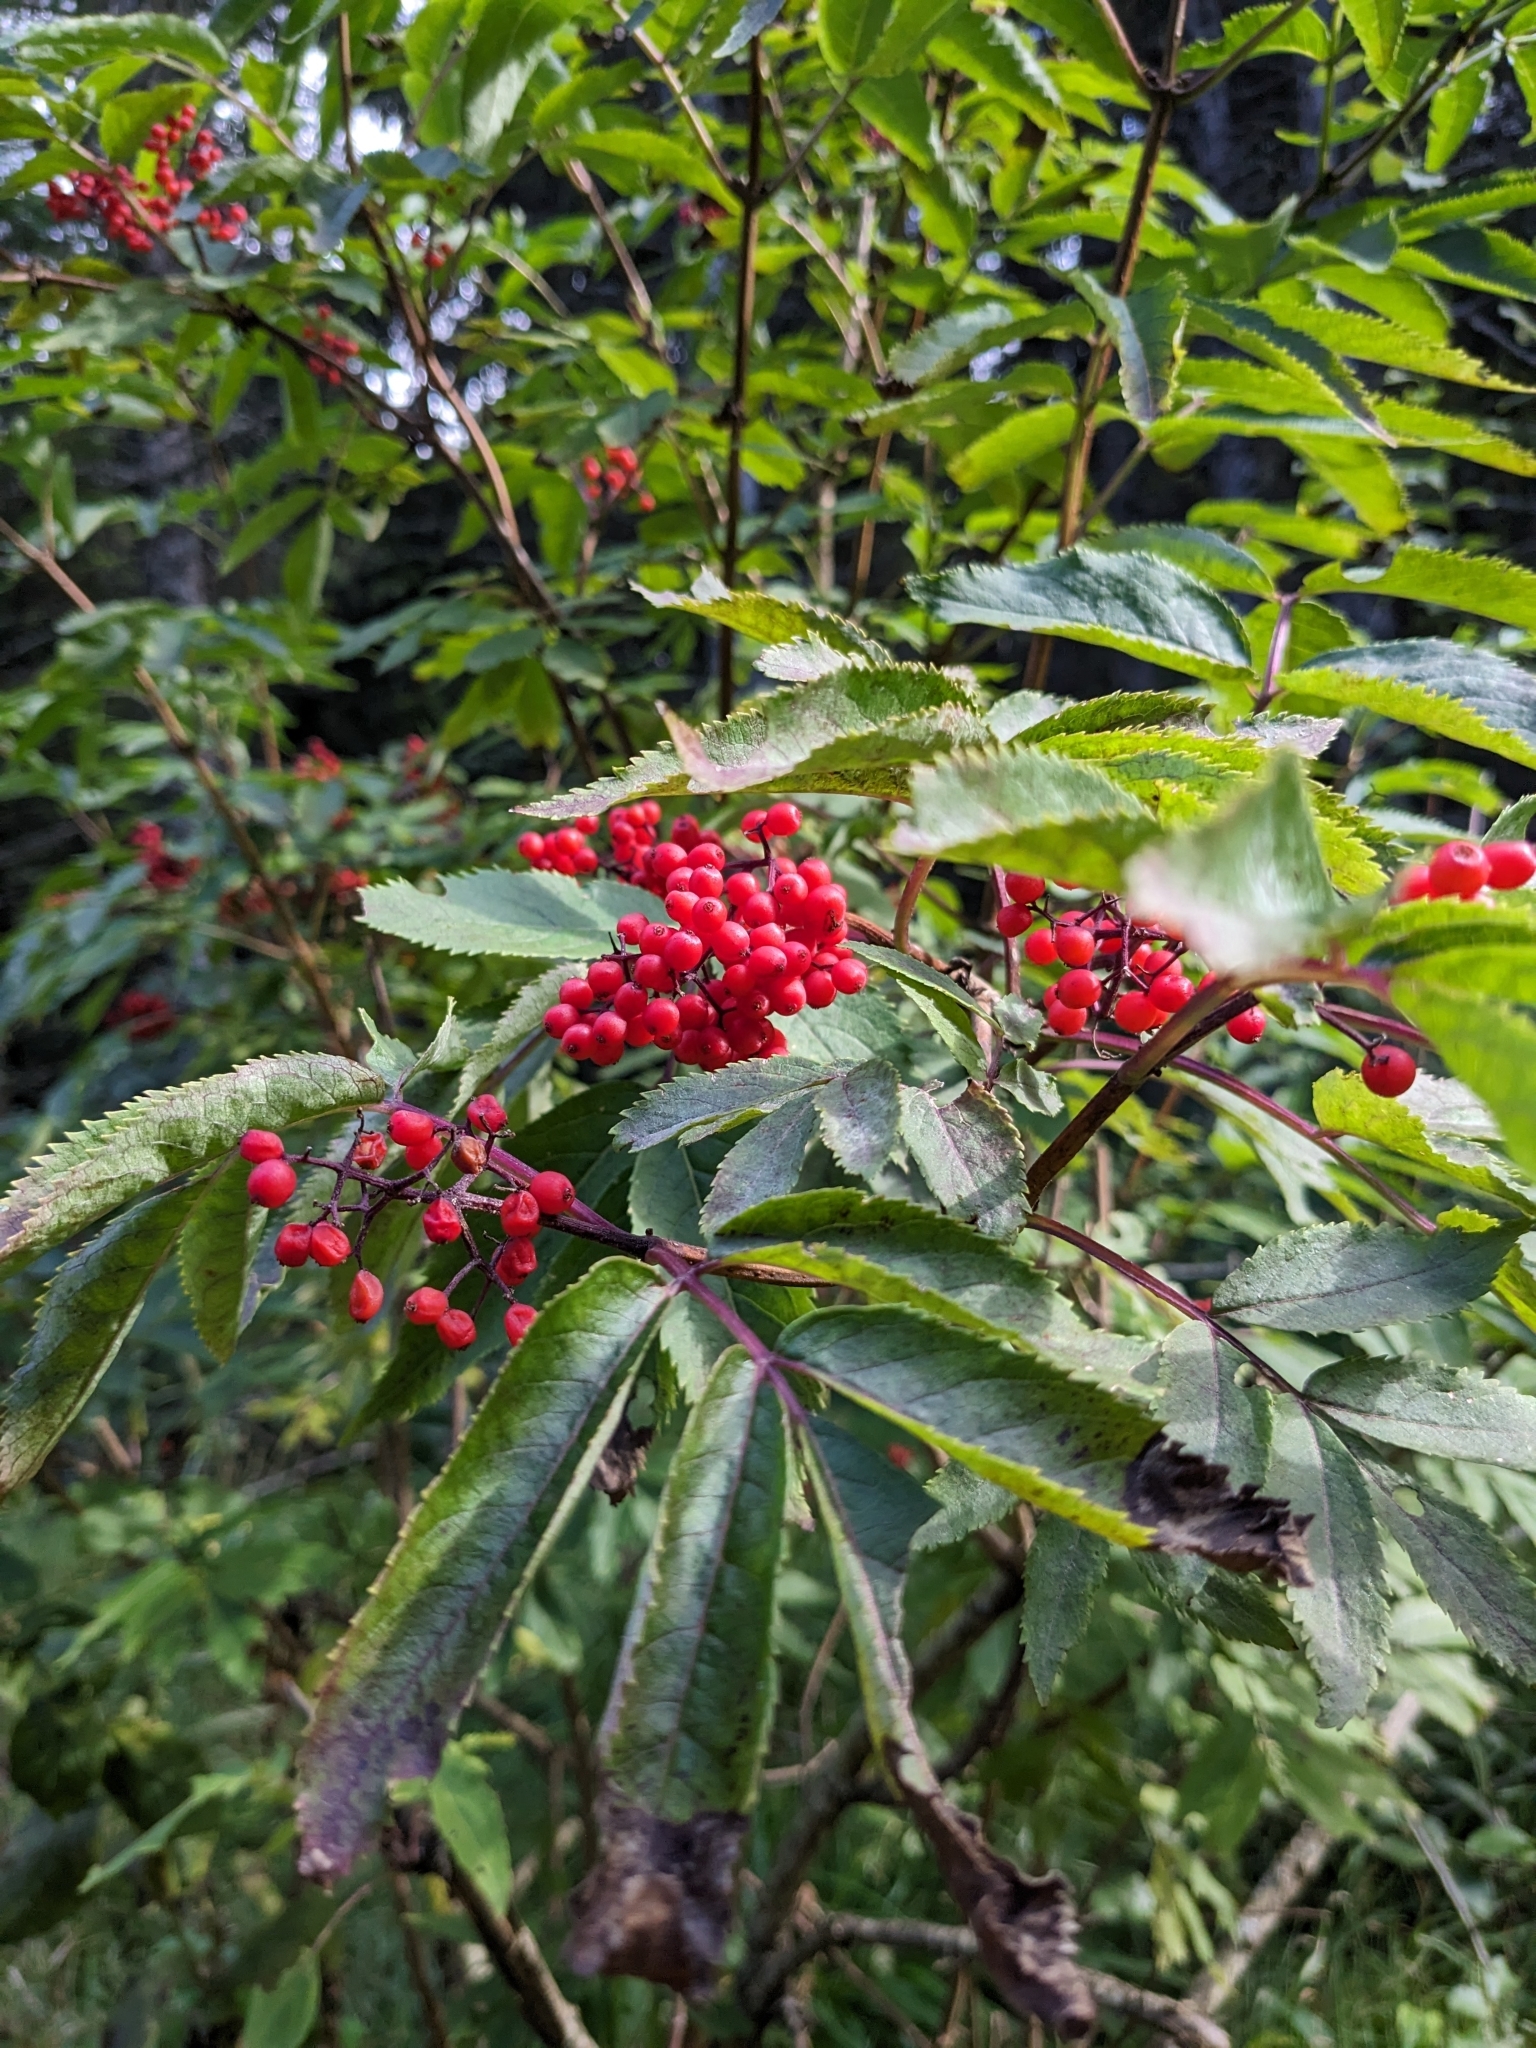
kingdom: Plantae
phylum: Tracheophyta
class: Magnoliopsida
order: Dipsacales
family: Viburnaceae
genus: Sambucus
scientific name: Sambucus racemosa
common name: Red-berried elder
